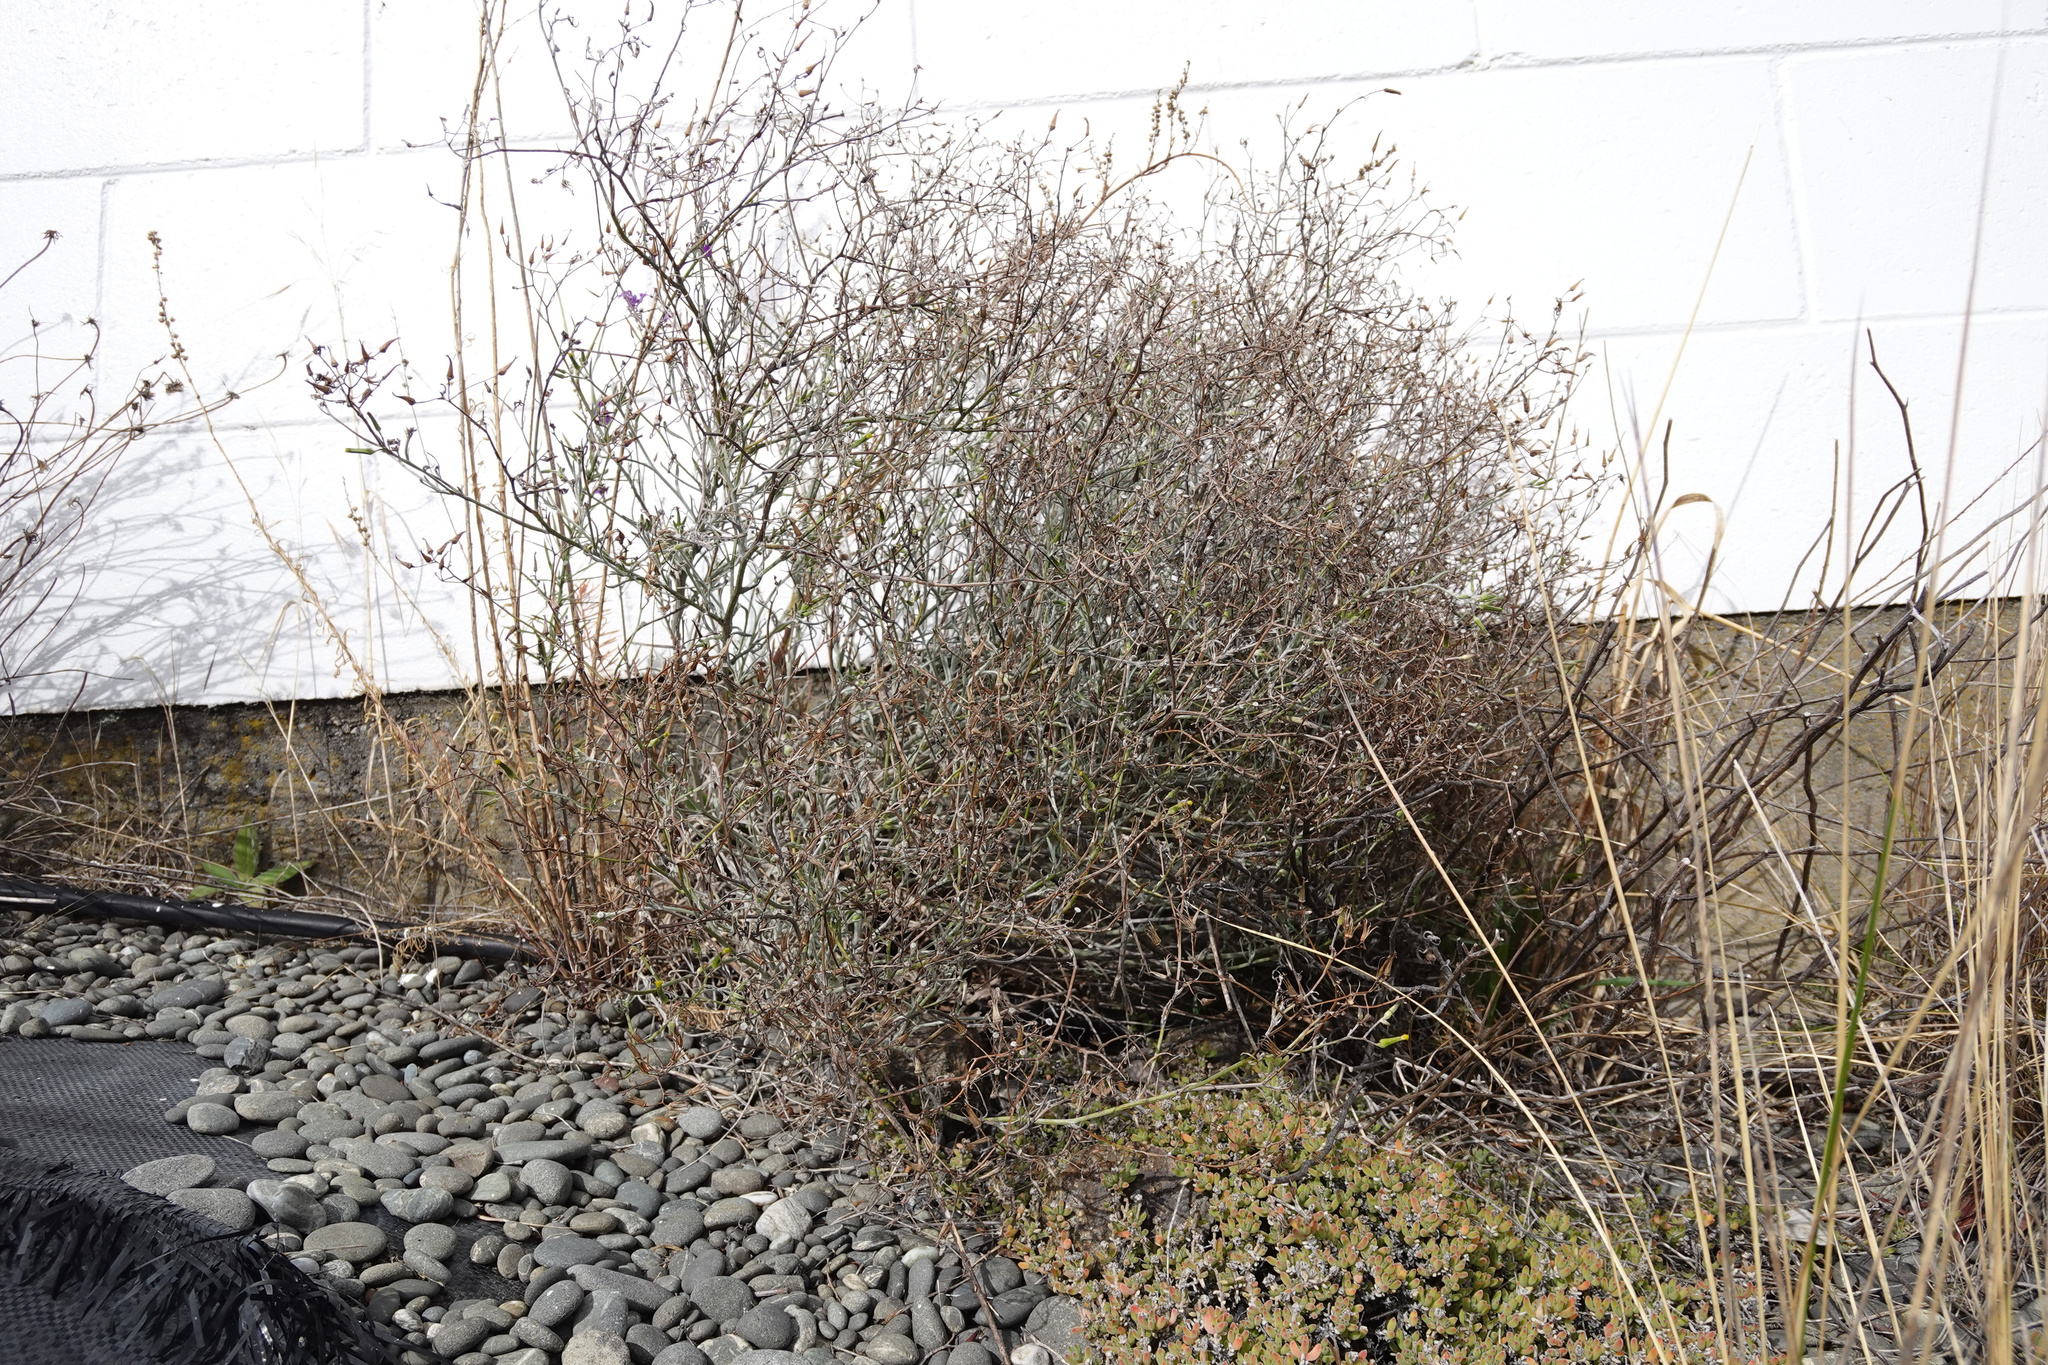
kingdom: Plantae
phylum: Tracheophyta
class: Magnoliopsida
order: Asterales
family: Asteraceae
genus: Senecio
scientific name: Senecio quadridentatus
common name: Cotton fireweed
